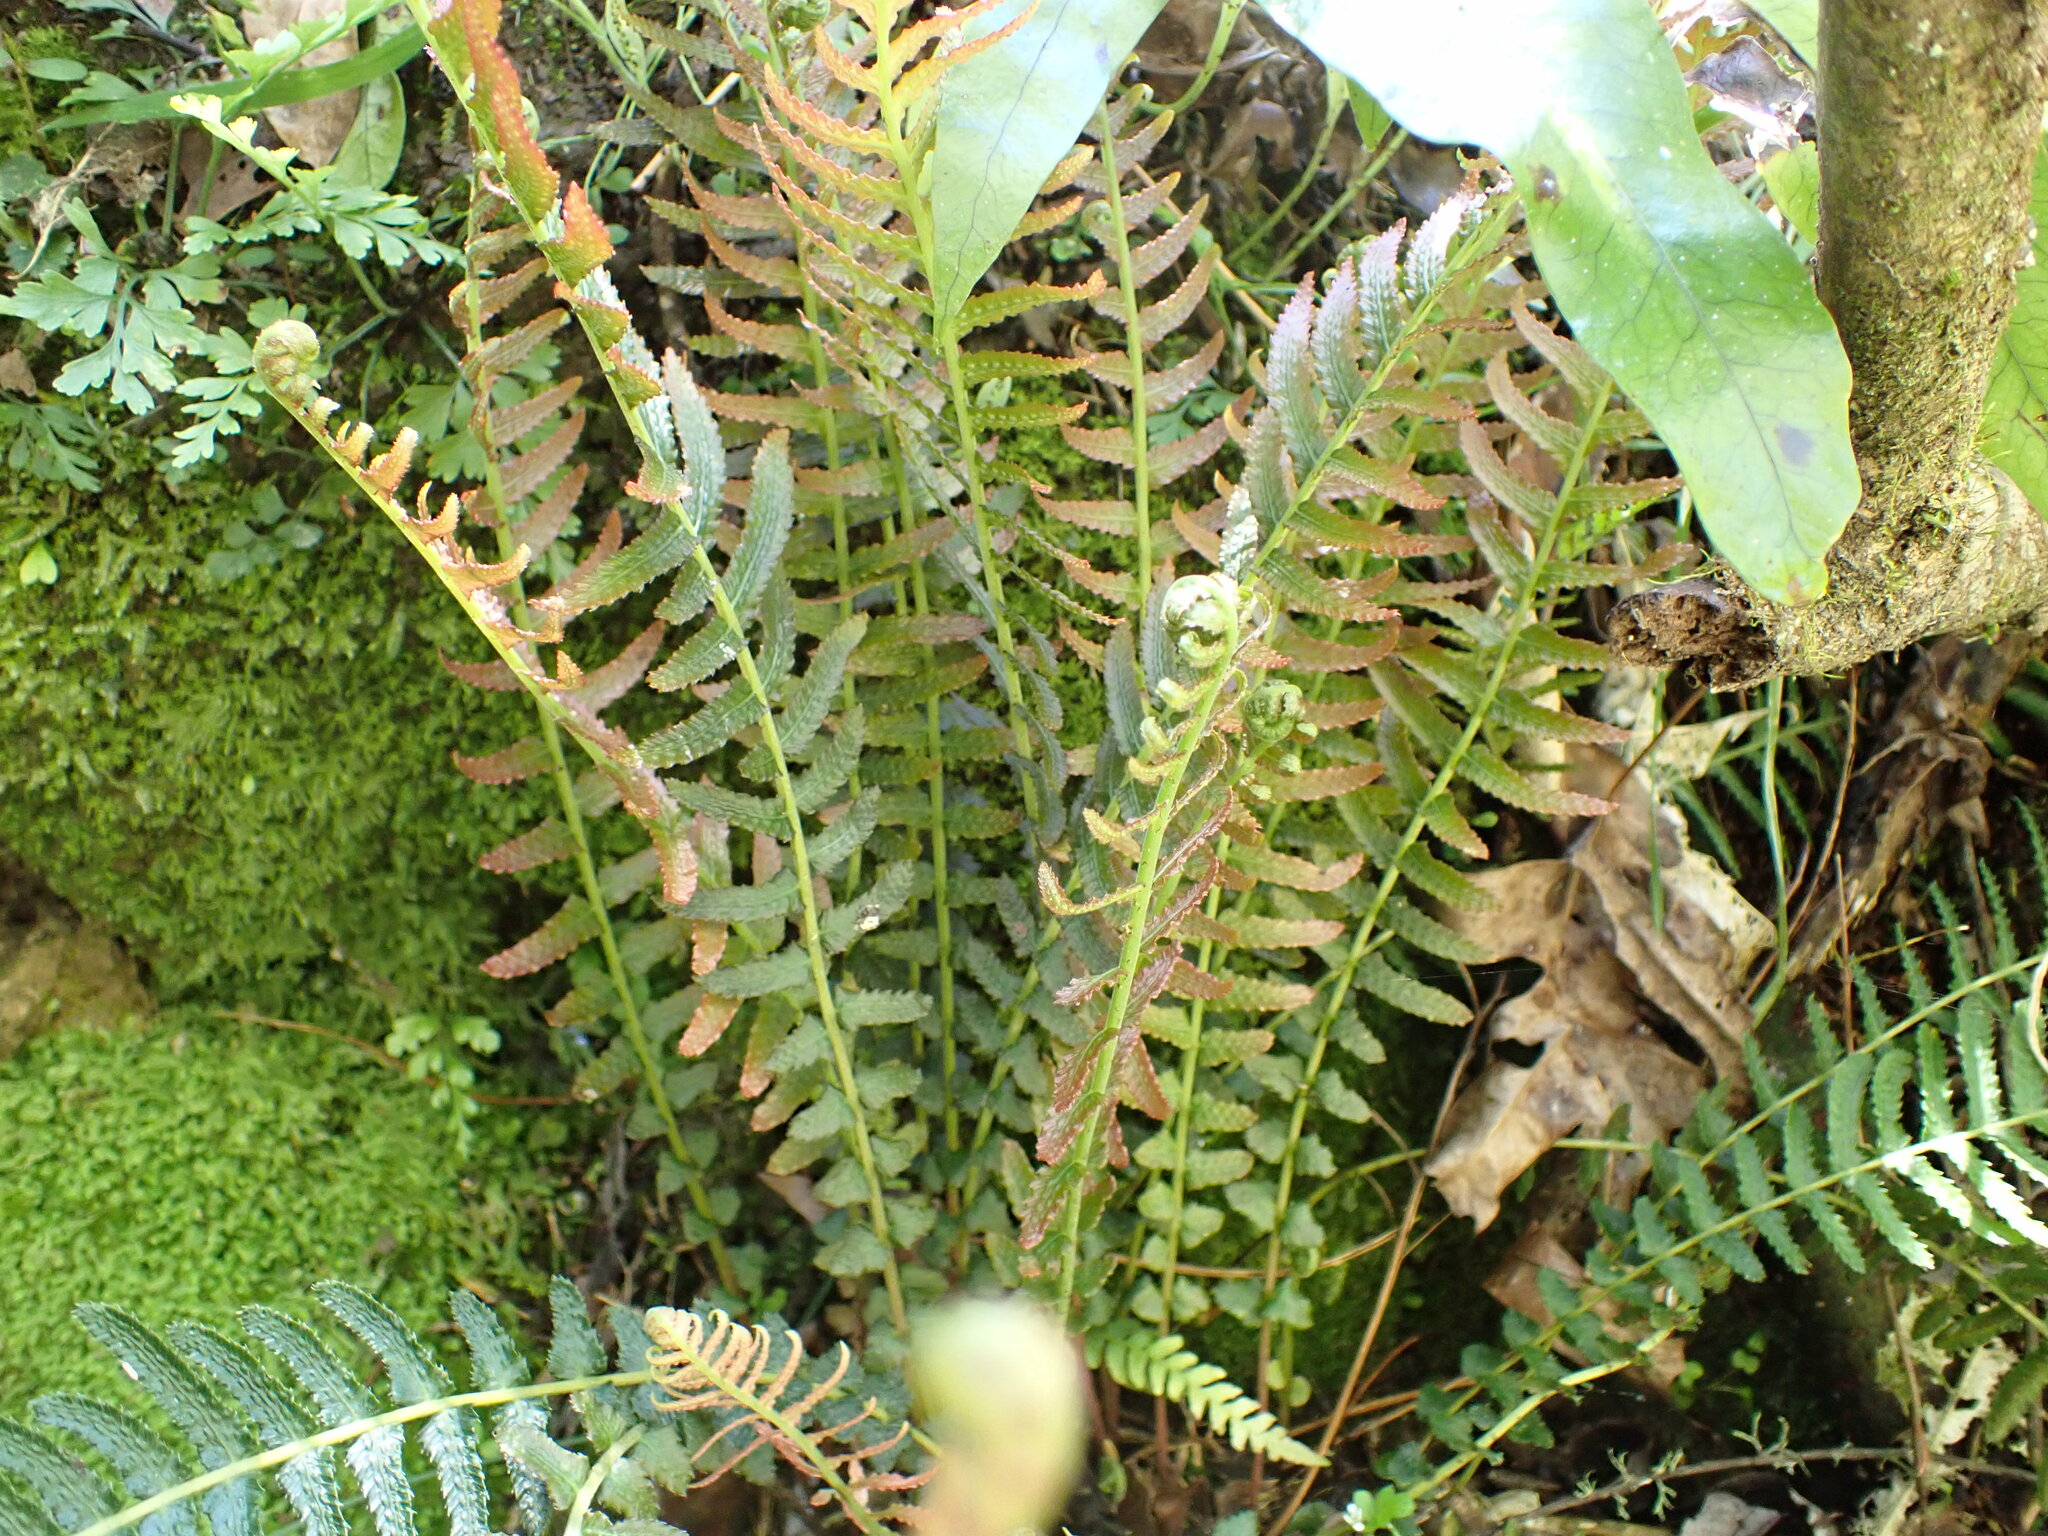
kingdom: Plantae
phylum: Tracheophyta
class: Polypodiopsida
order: Polypodiales
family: Blechnaceae
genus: Doodia
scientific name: Doodia australis
